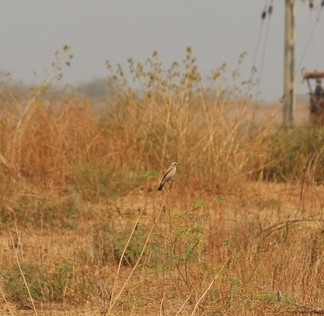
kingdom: Animalia
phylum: Chordata
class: Aves
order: Passeriformes
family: Muscicapidae
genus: Saxicola
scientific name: Saxicola maurus
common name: Siberian stonechat
